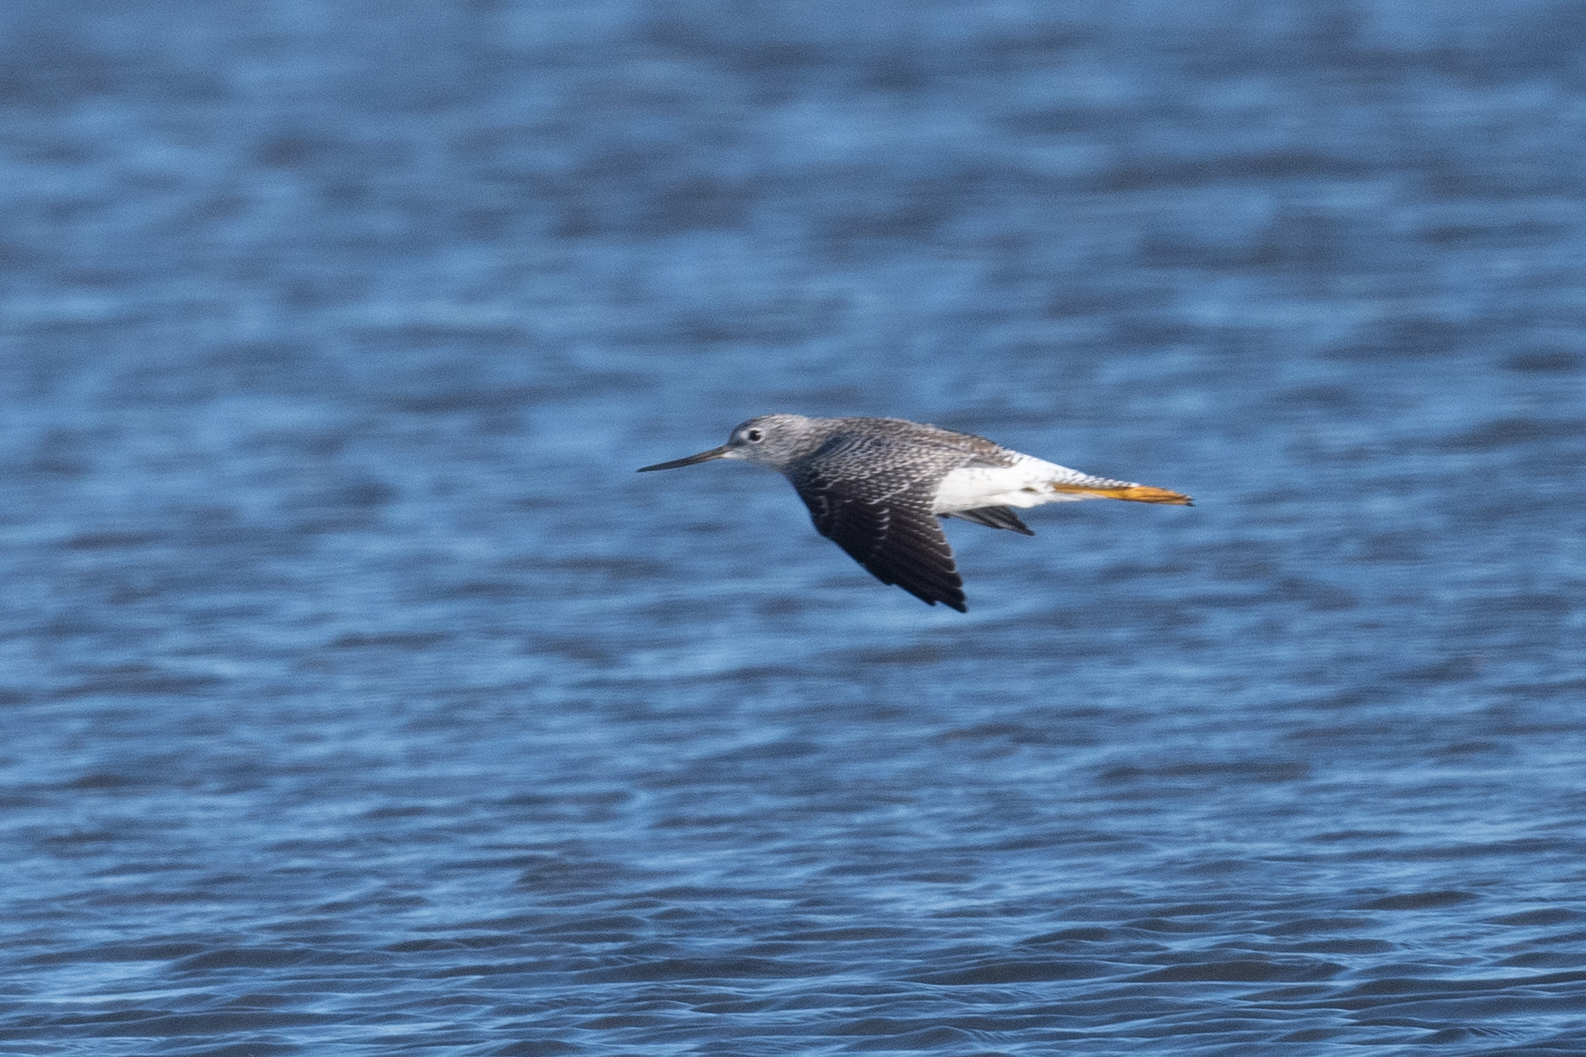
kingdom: Animalia
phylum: Chordata
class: Aves
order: Charadriiformes
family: Scolopacidae
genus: Tringa
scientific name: Tringa melanoleuca
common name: Greater yellowlegs
